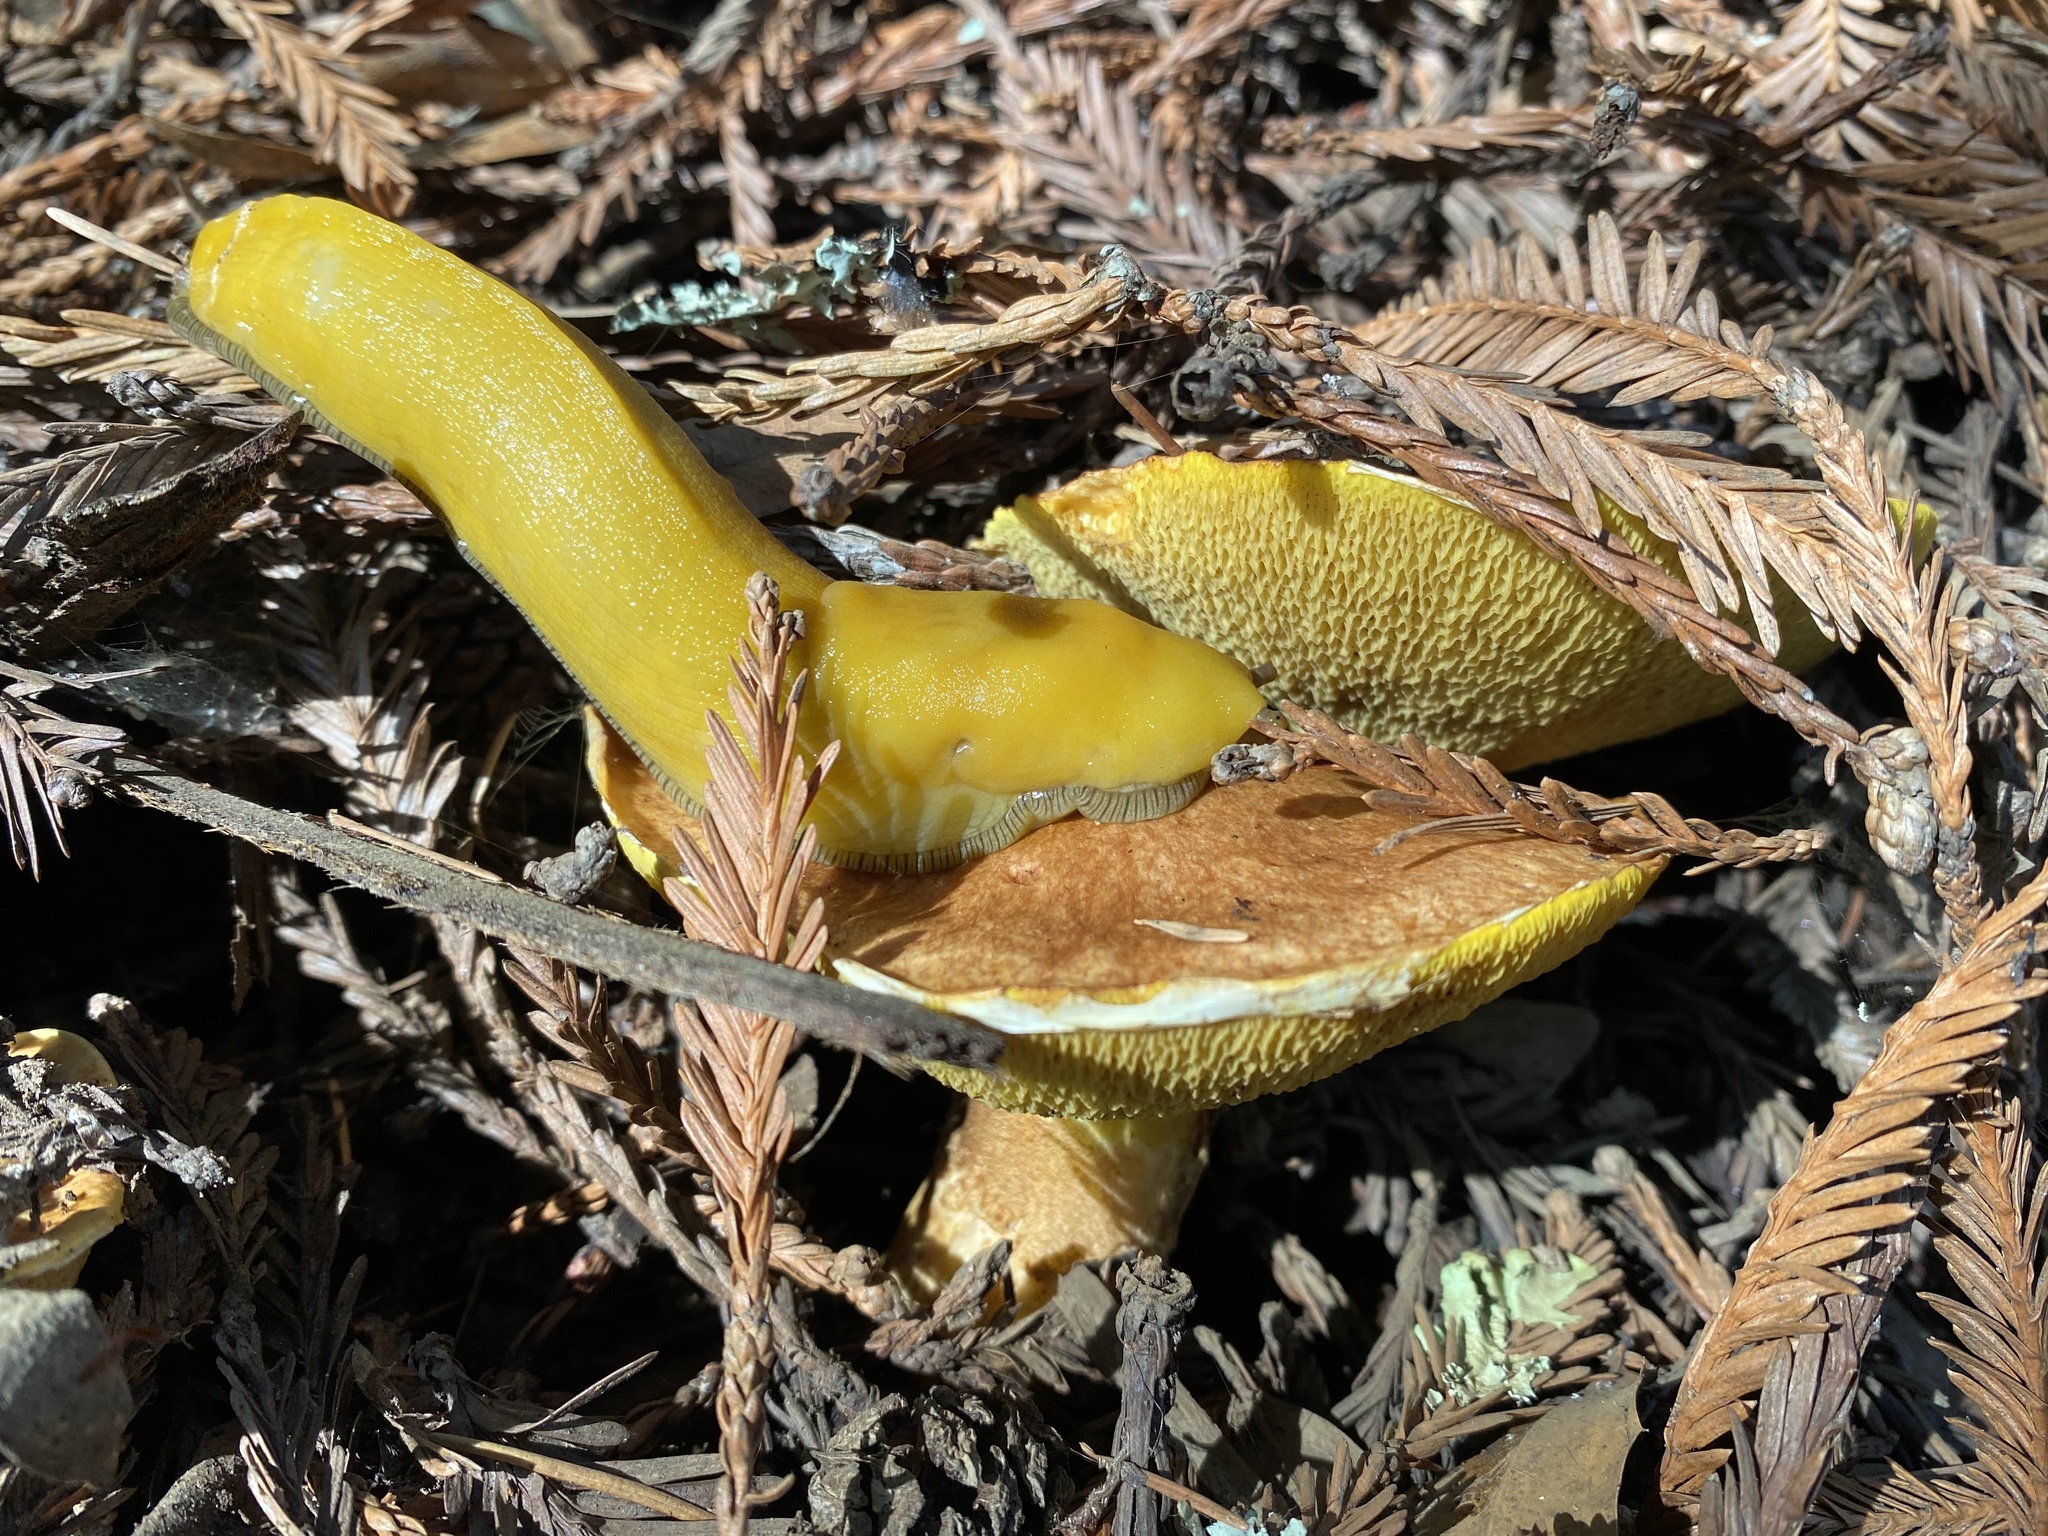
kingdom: Animalia
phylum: Mollusca
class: Gastropoda
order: Stylommatophora
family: Ariolimacidae
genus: Ariolimax
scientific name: Ariolimax dolichophallus
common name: Slender banana slug
